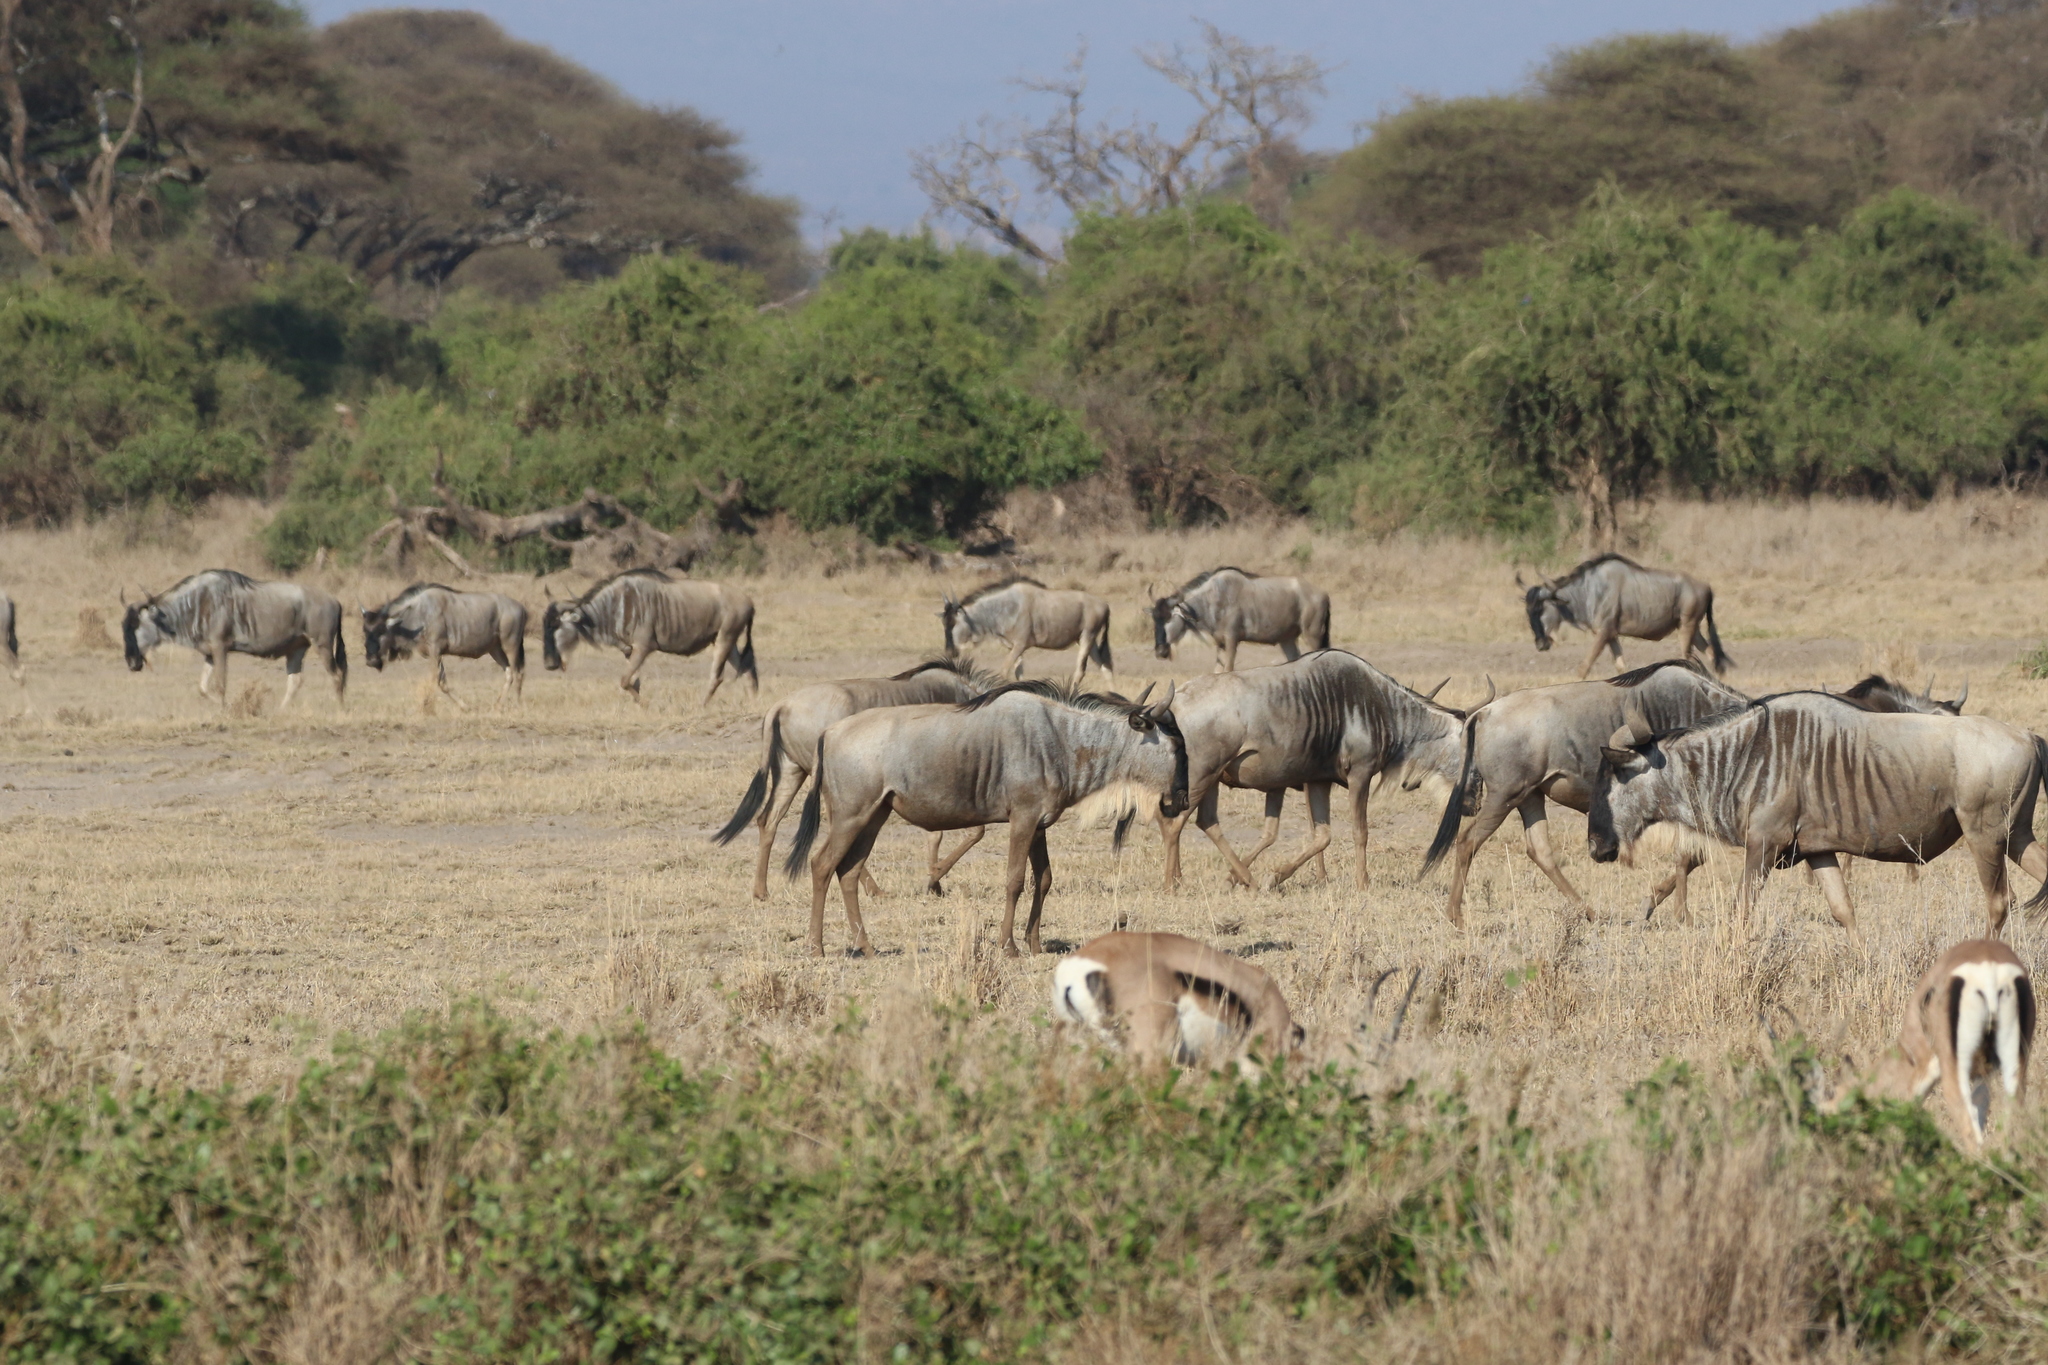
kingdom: Animalia
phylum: Chordata
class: Mammalia
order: Artiodactyla
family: Bovidae
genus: Connochaetes
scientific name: Connochaetes taurinus
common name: Blue wildebeest
